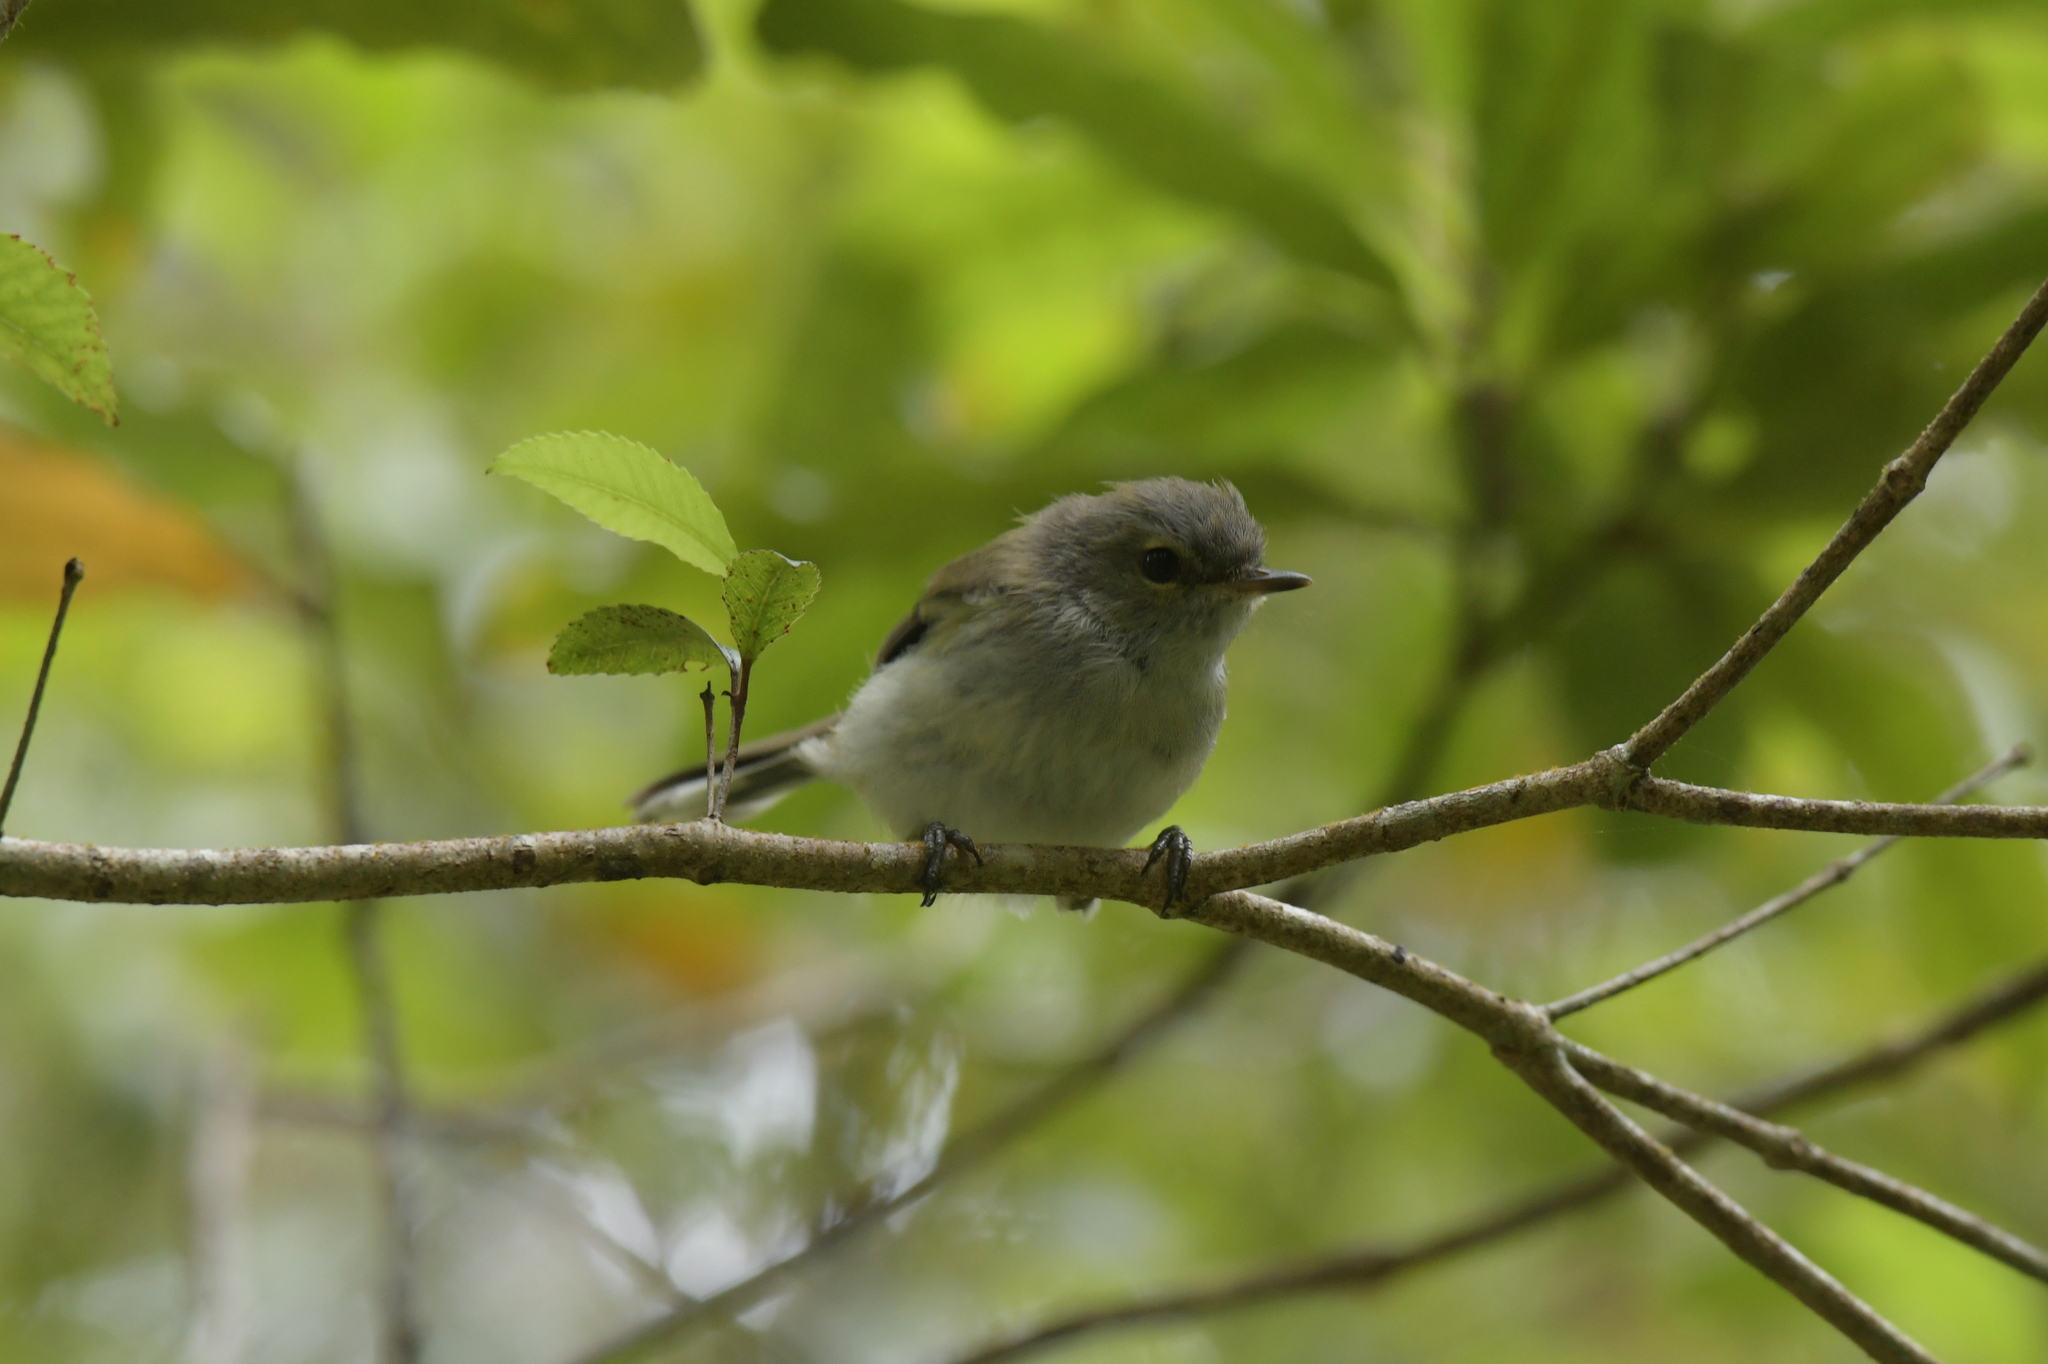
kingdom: Animalia
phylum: Chordata
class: Aves
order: Passeriformes
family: Acanthizidae
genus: Gerygone
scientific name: Gerygone igata
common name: Grey gerygone
